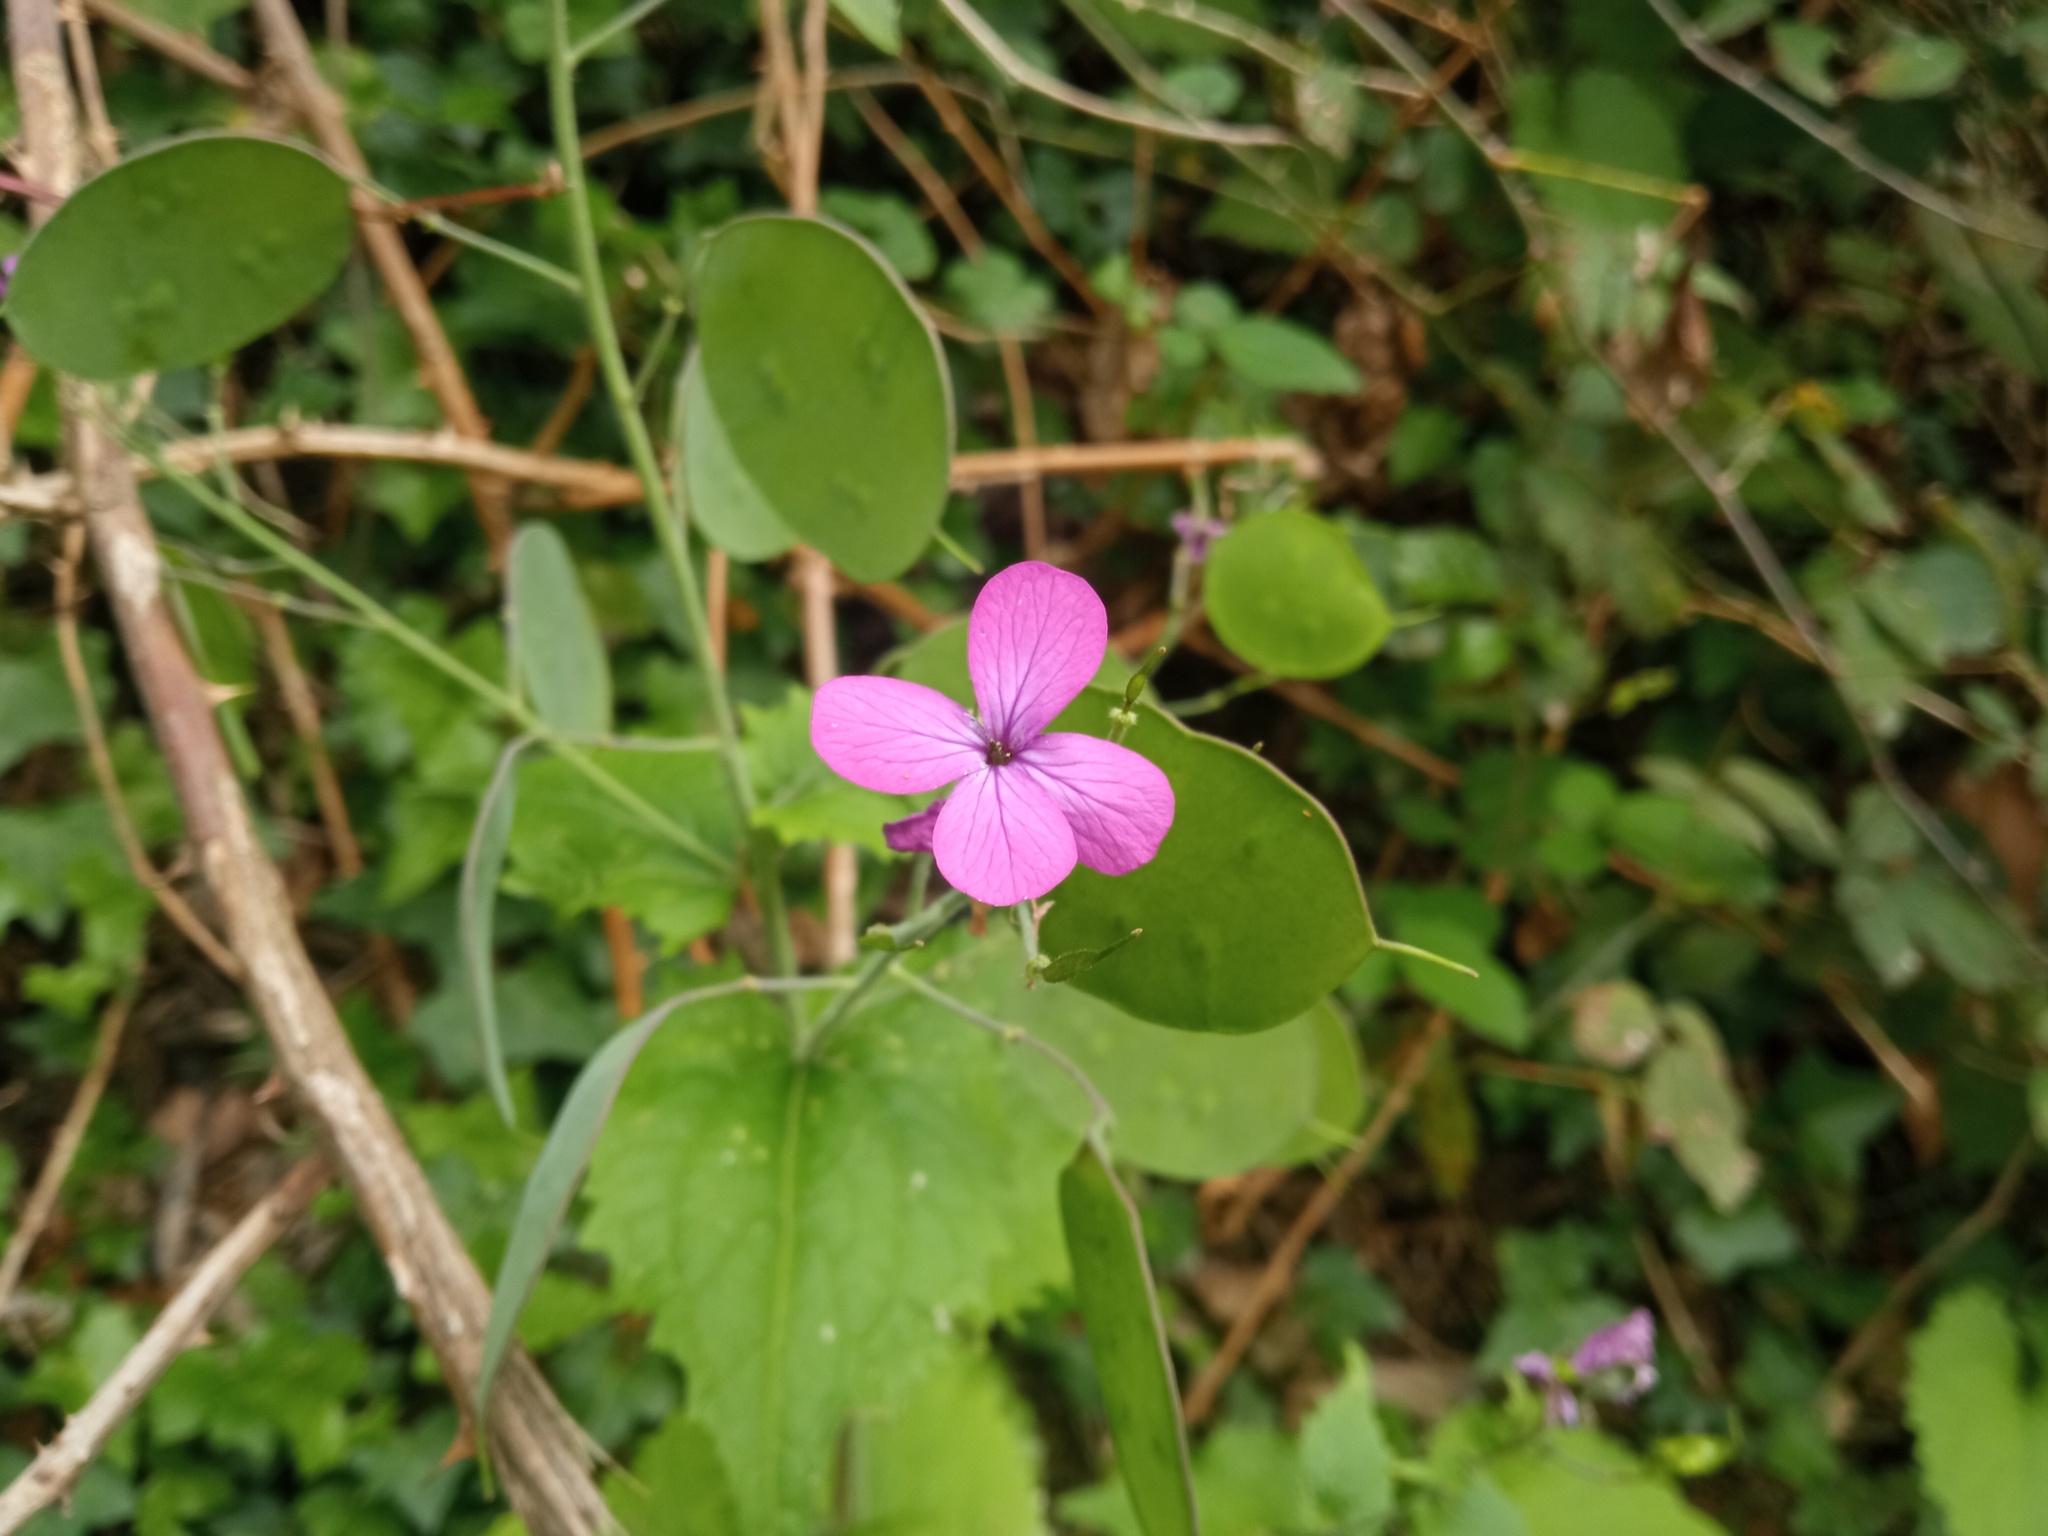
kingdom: Plantae
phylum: Tracheophyta
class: Magnoliopsida
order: Brassicales
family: Brassicaceae
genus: Lunaria
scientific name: Lunaria annua
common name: Honesty
